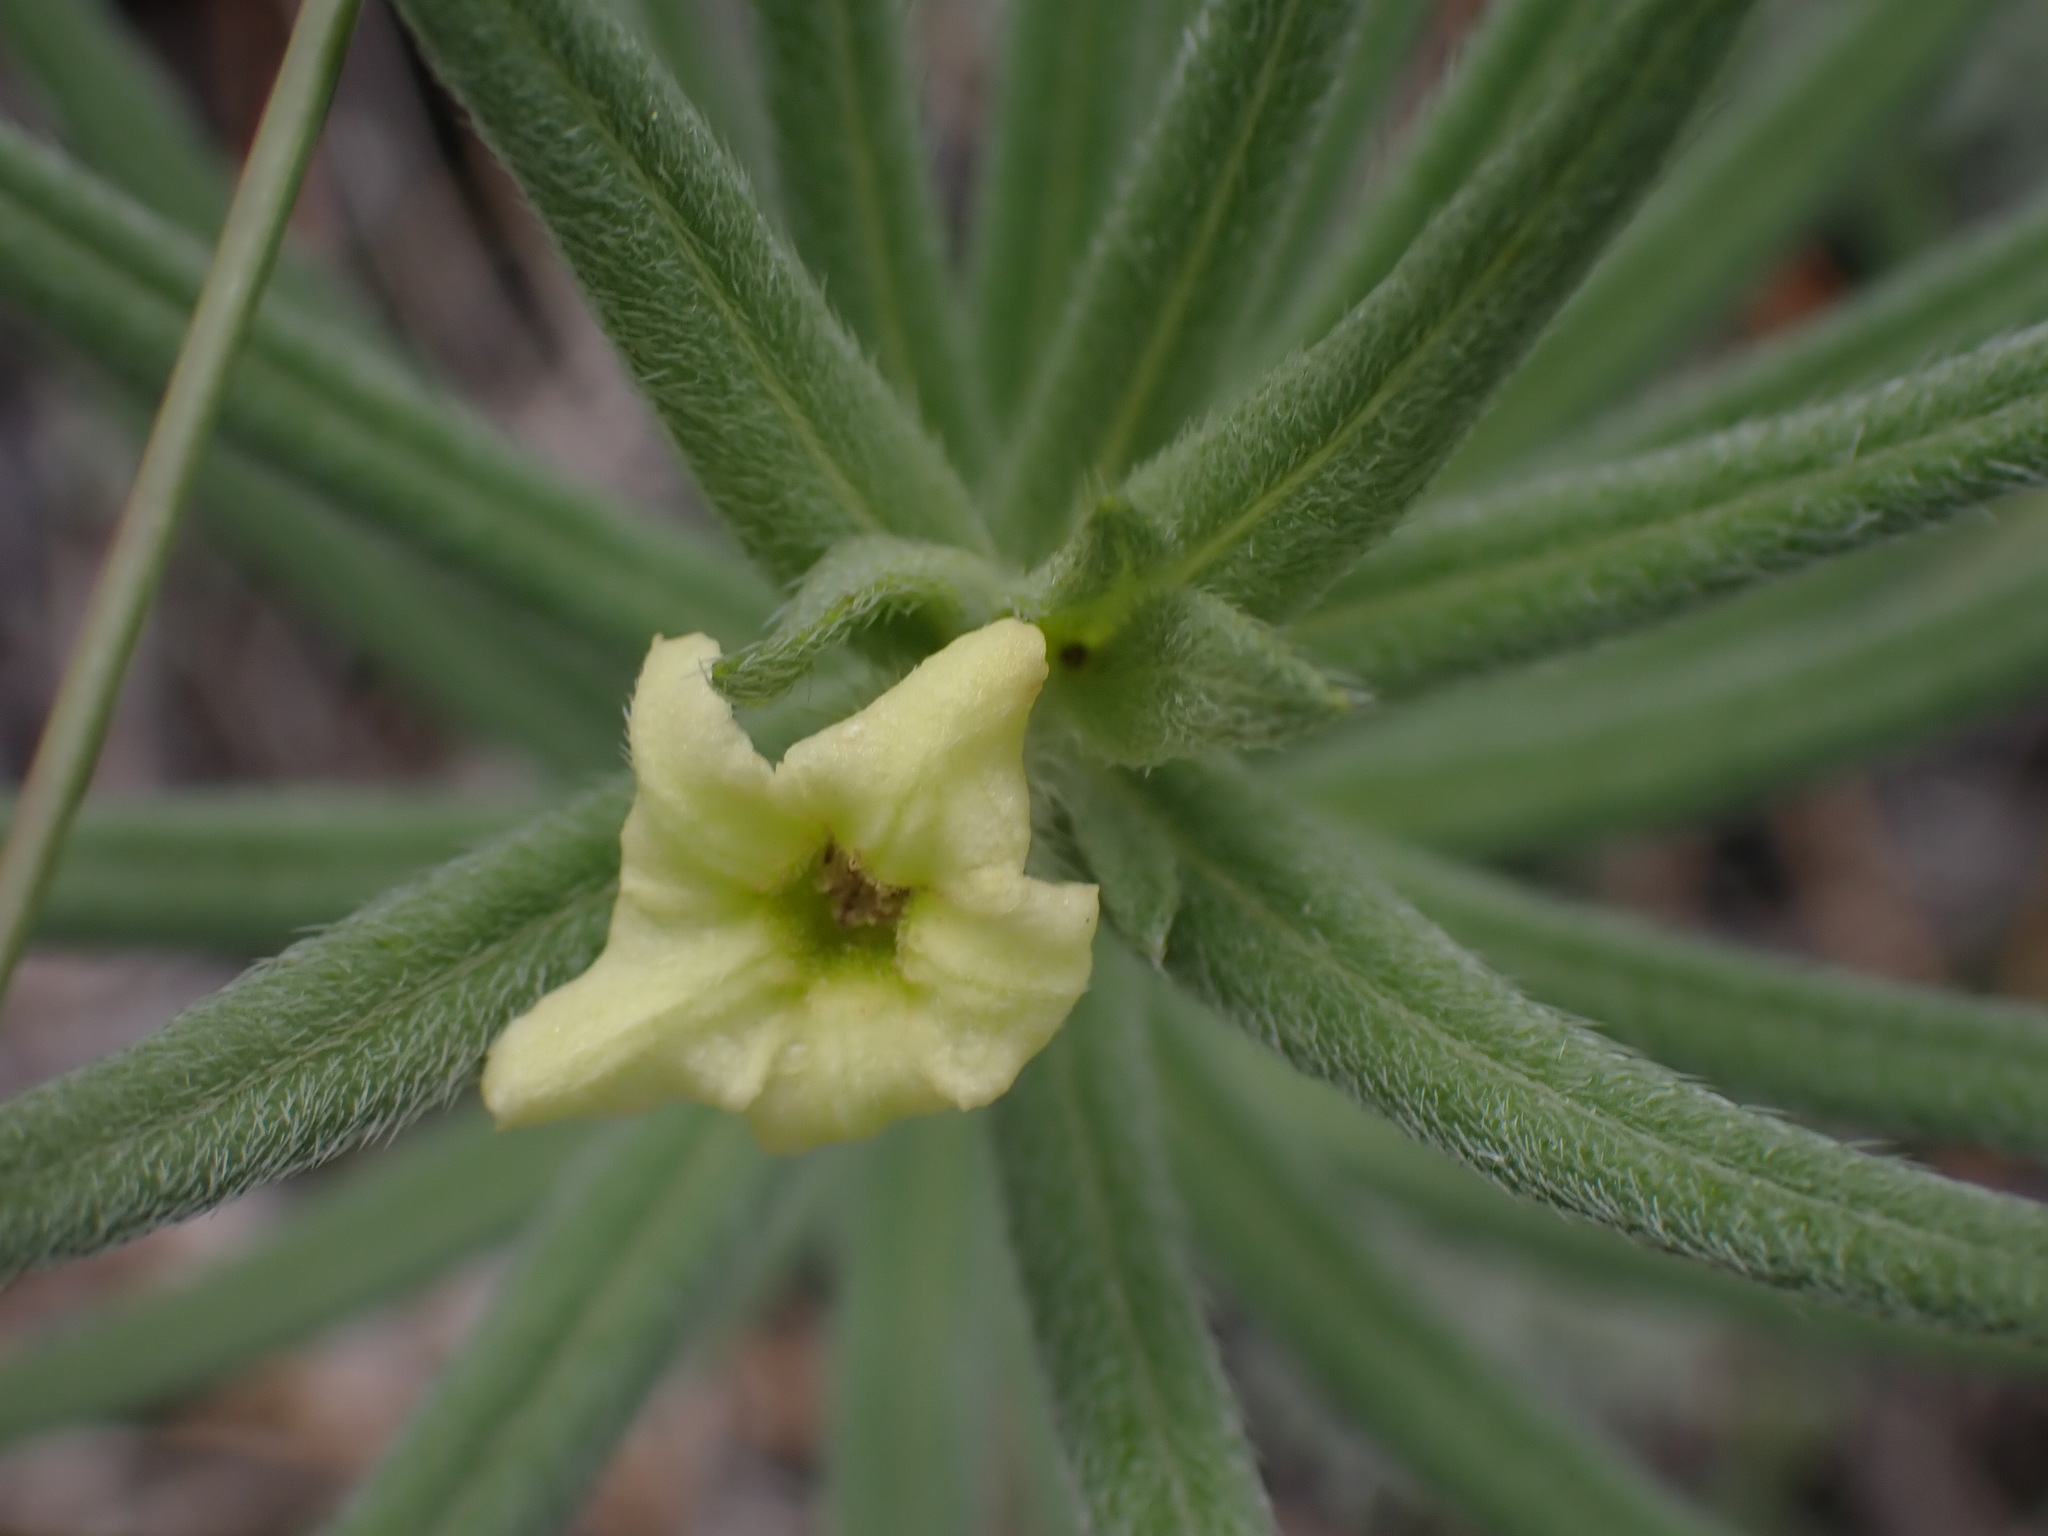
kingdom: Plantae
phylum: Tracheophyta
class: Magnoliopsida
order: Boraginales
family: Boraginaceae
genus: Lithospermum
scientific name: Lithospermum ruderale
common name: Western gromwell
